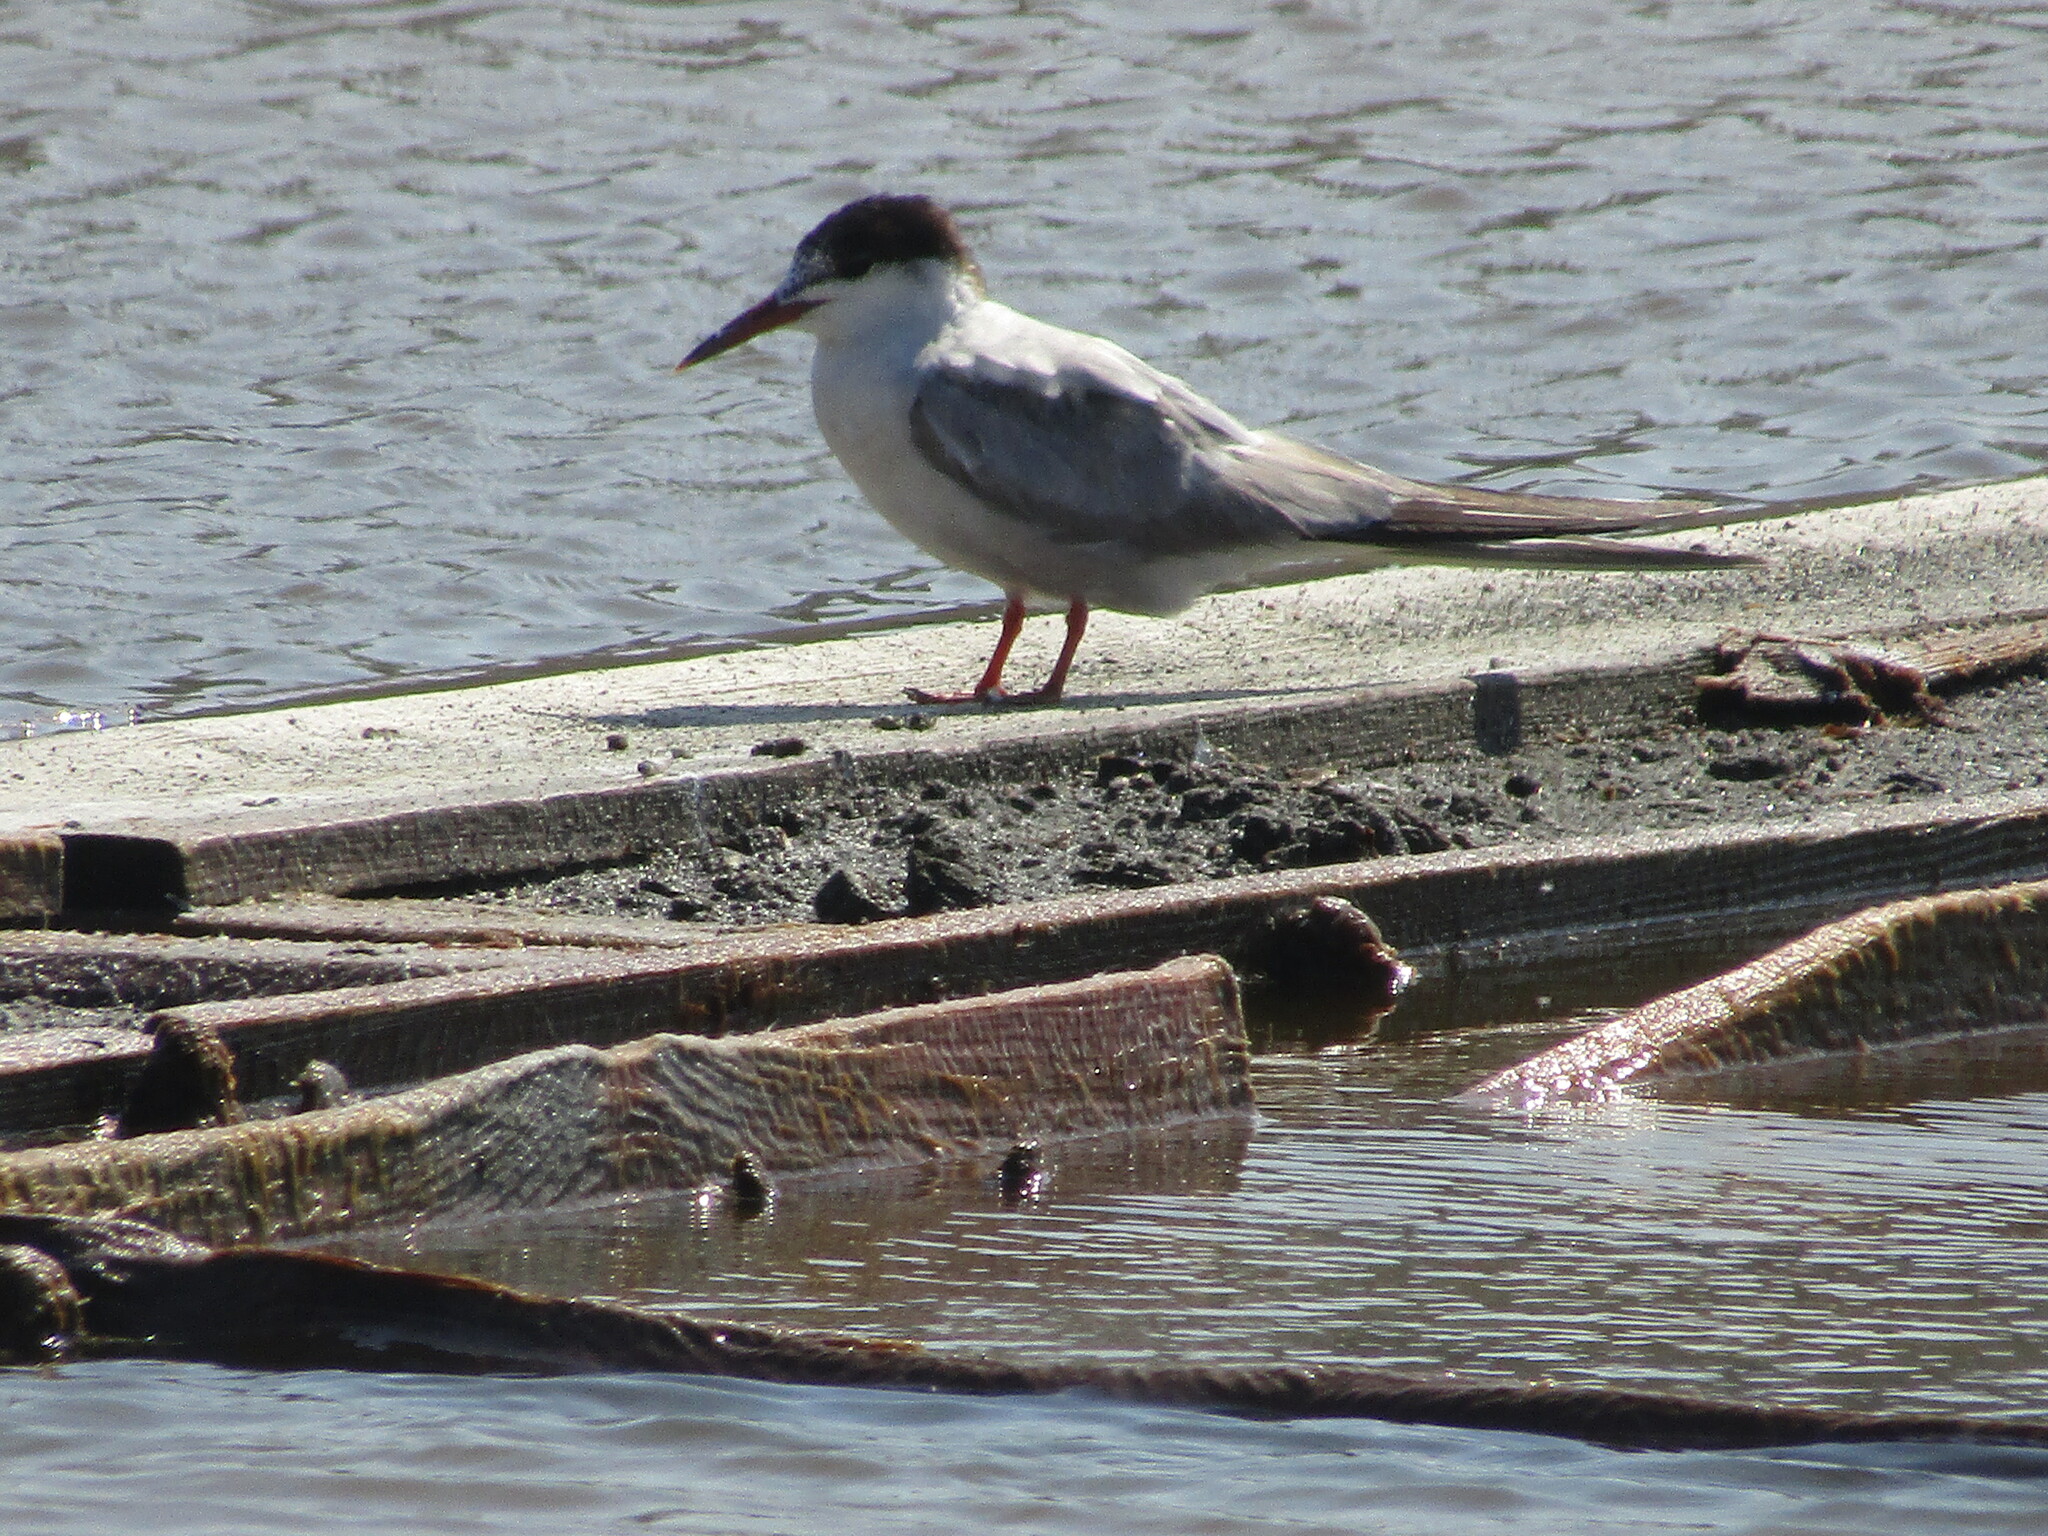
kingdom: Animalia
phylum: Chordata
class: Aves
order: Charadriiformes
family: Laridae
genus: Sterna
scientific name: Sterna hirundo
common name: Common tern
